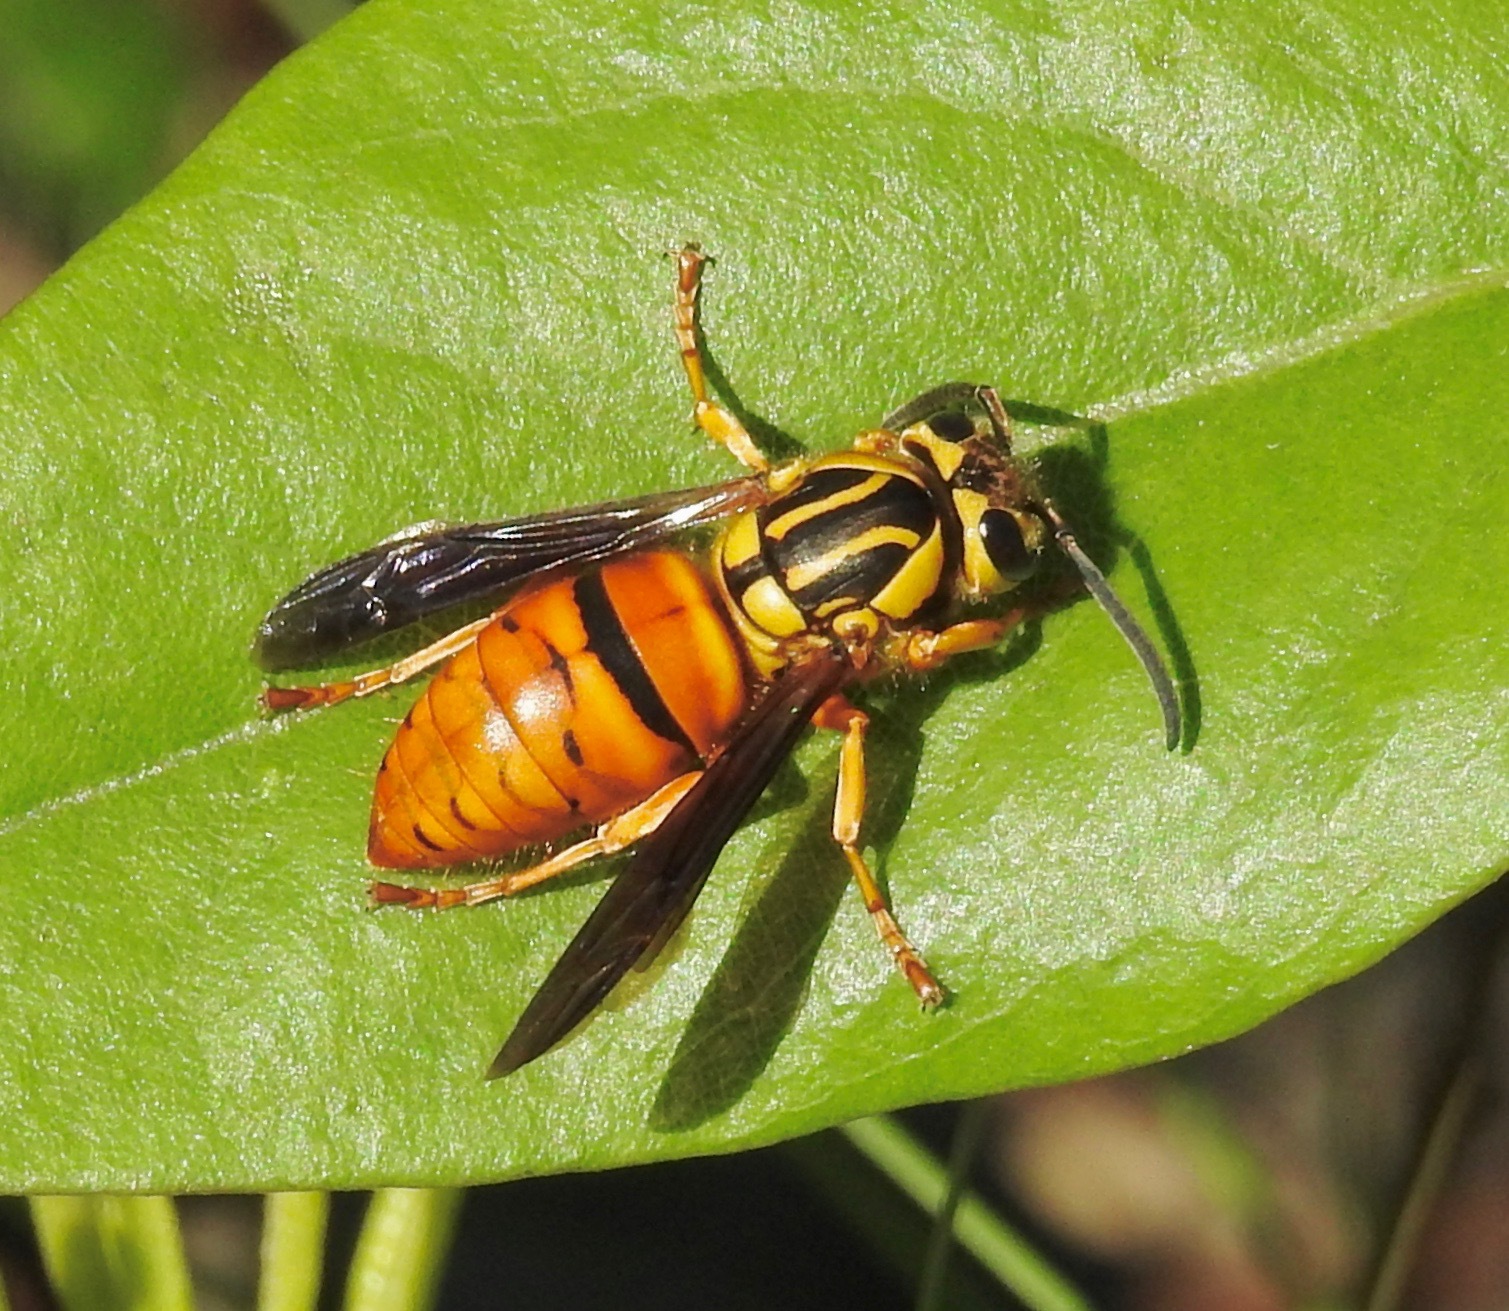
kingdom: Animalia
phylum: Arthropoda
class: Insecta
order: Hymenoptera
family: Vespidae
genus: Vespula
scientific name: Vespula squamosa
